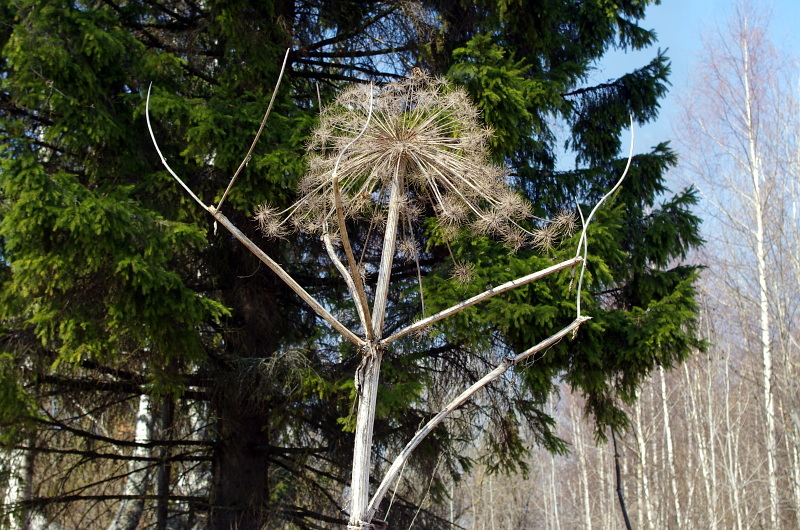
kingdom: Plantae
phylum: Tracheophyta
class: Magnoliopsida
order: Apiales
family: Apiaceae
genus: Heracleum
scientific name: Heracleum sosnowskyi
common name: Sosnowsky's hogweed
